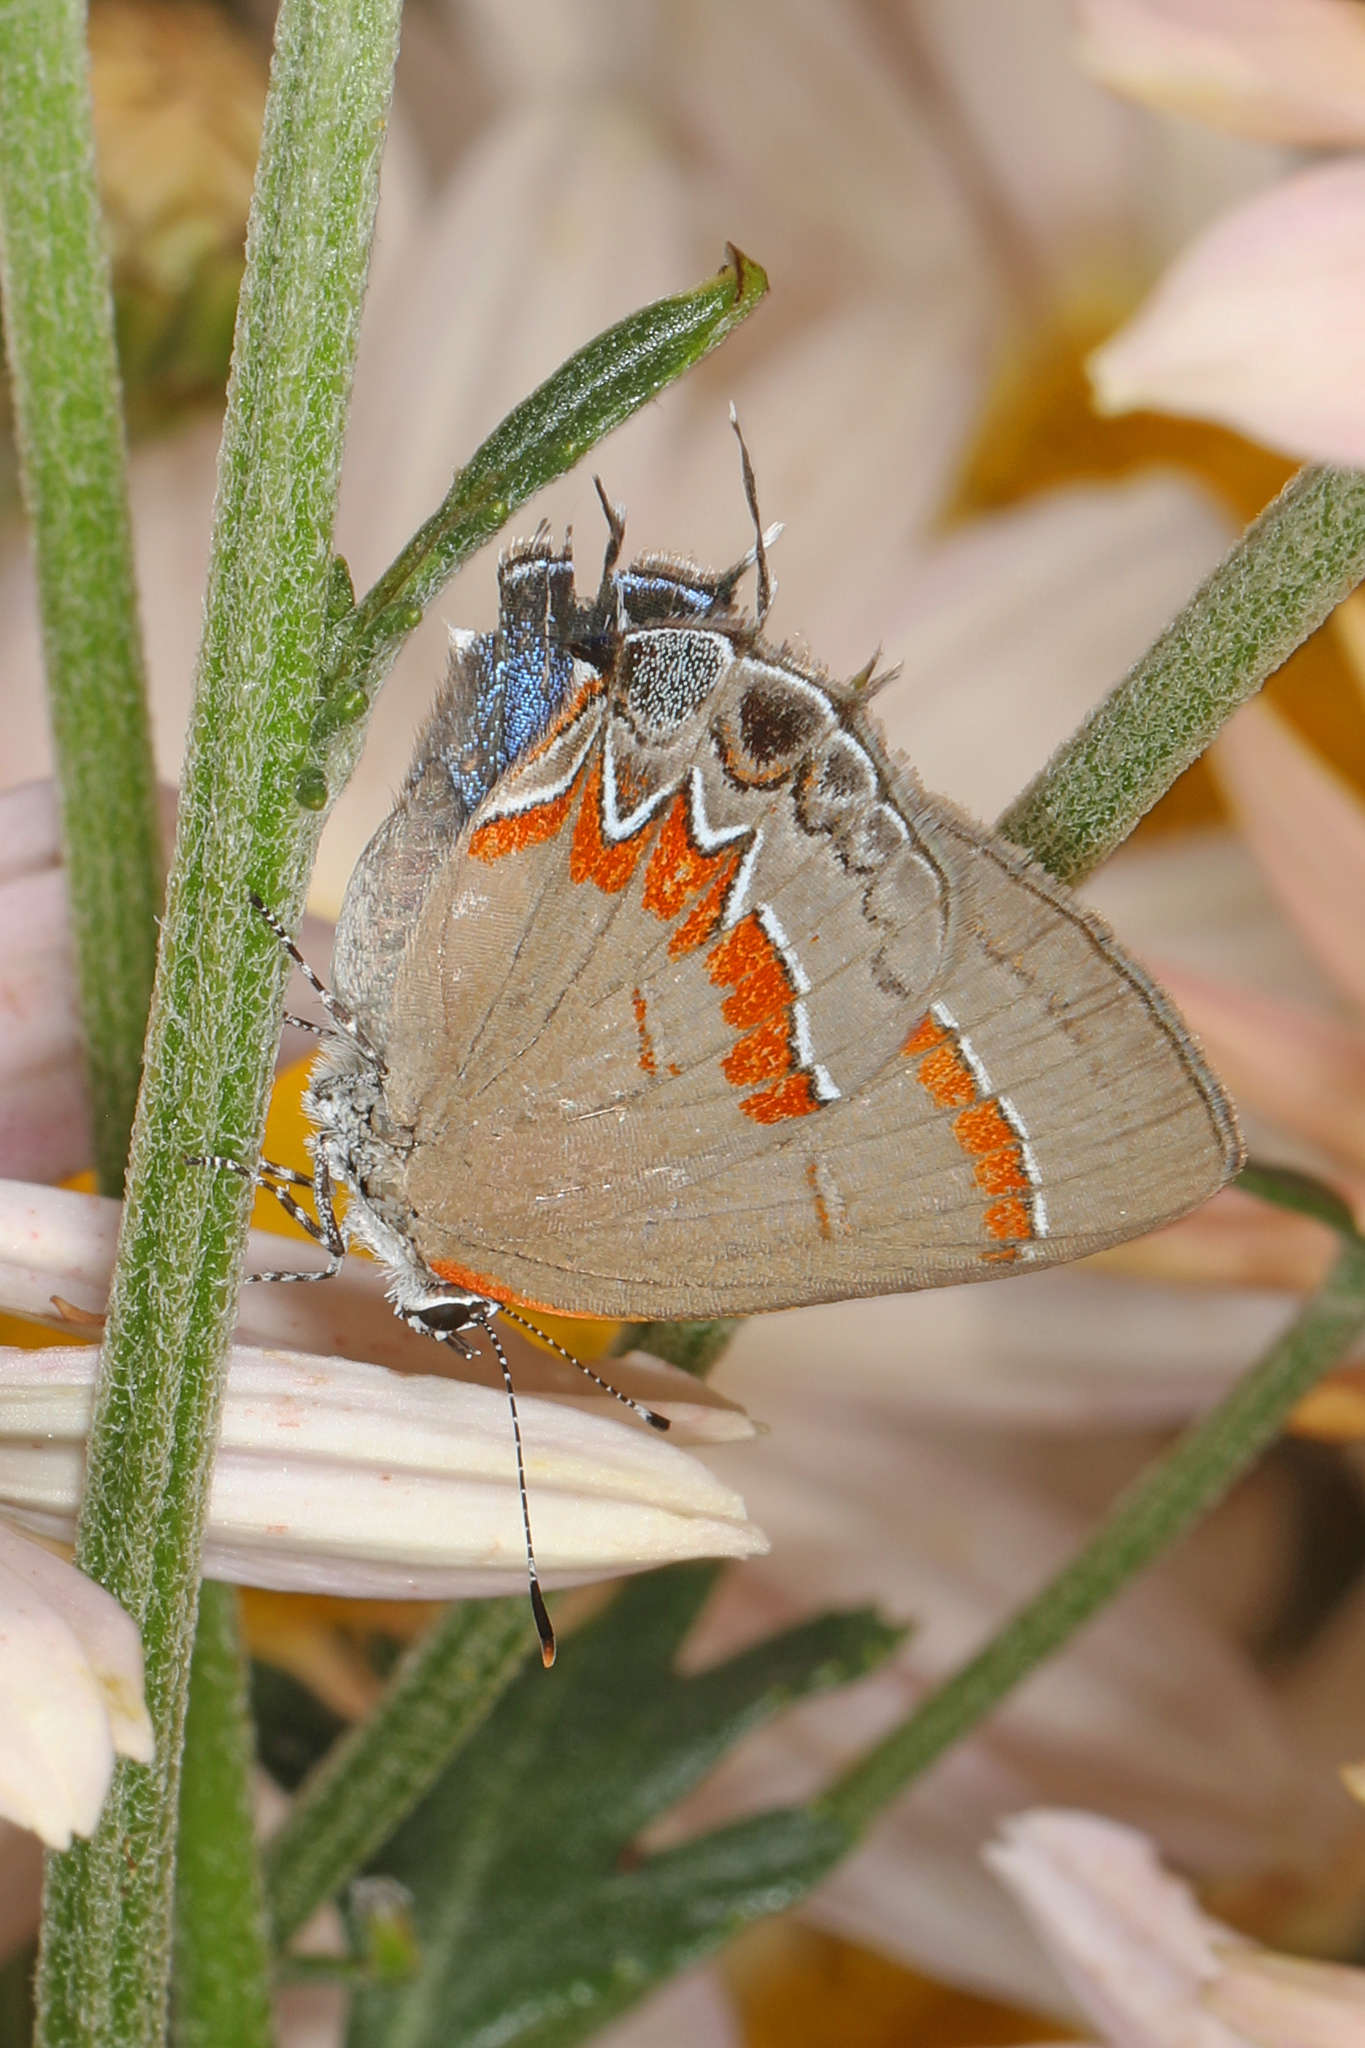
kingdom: Animalia
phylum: Arthropoda
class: Insecta
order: Lepidoptera
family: Lycaenidae
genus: Calycopis
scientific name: Calycopis cecrops
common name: Red-banded hairstreak
